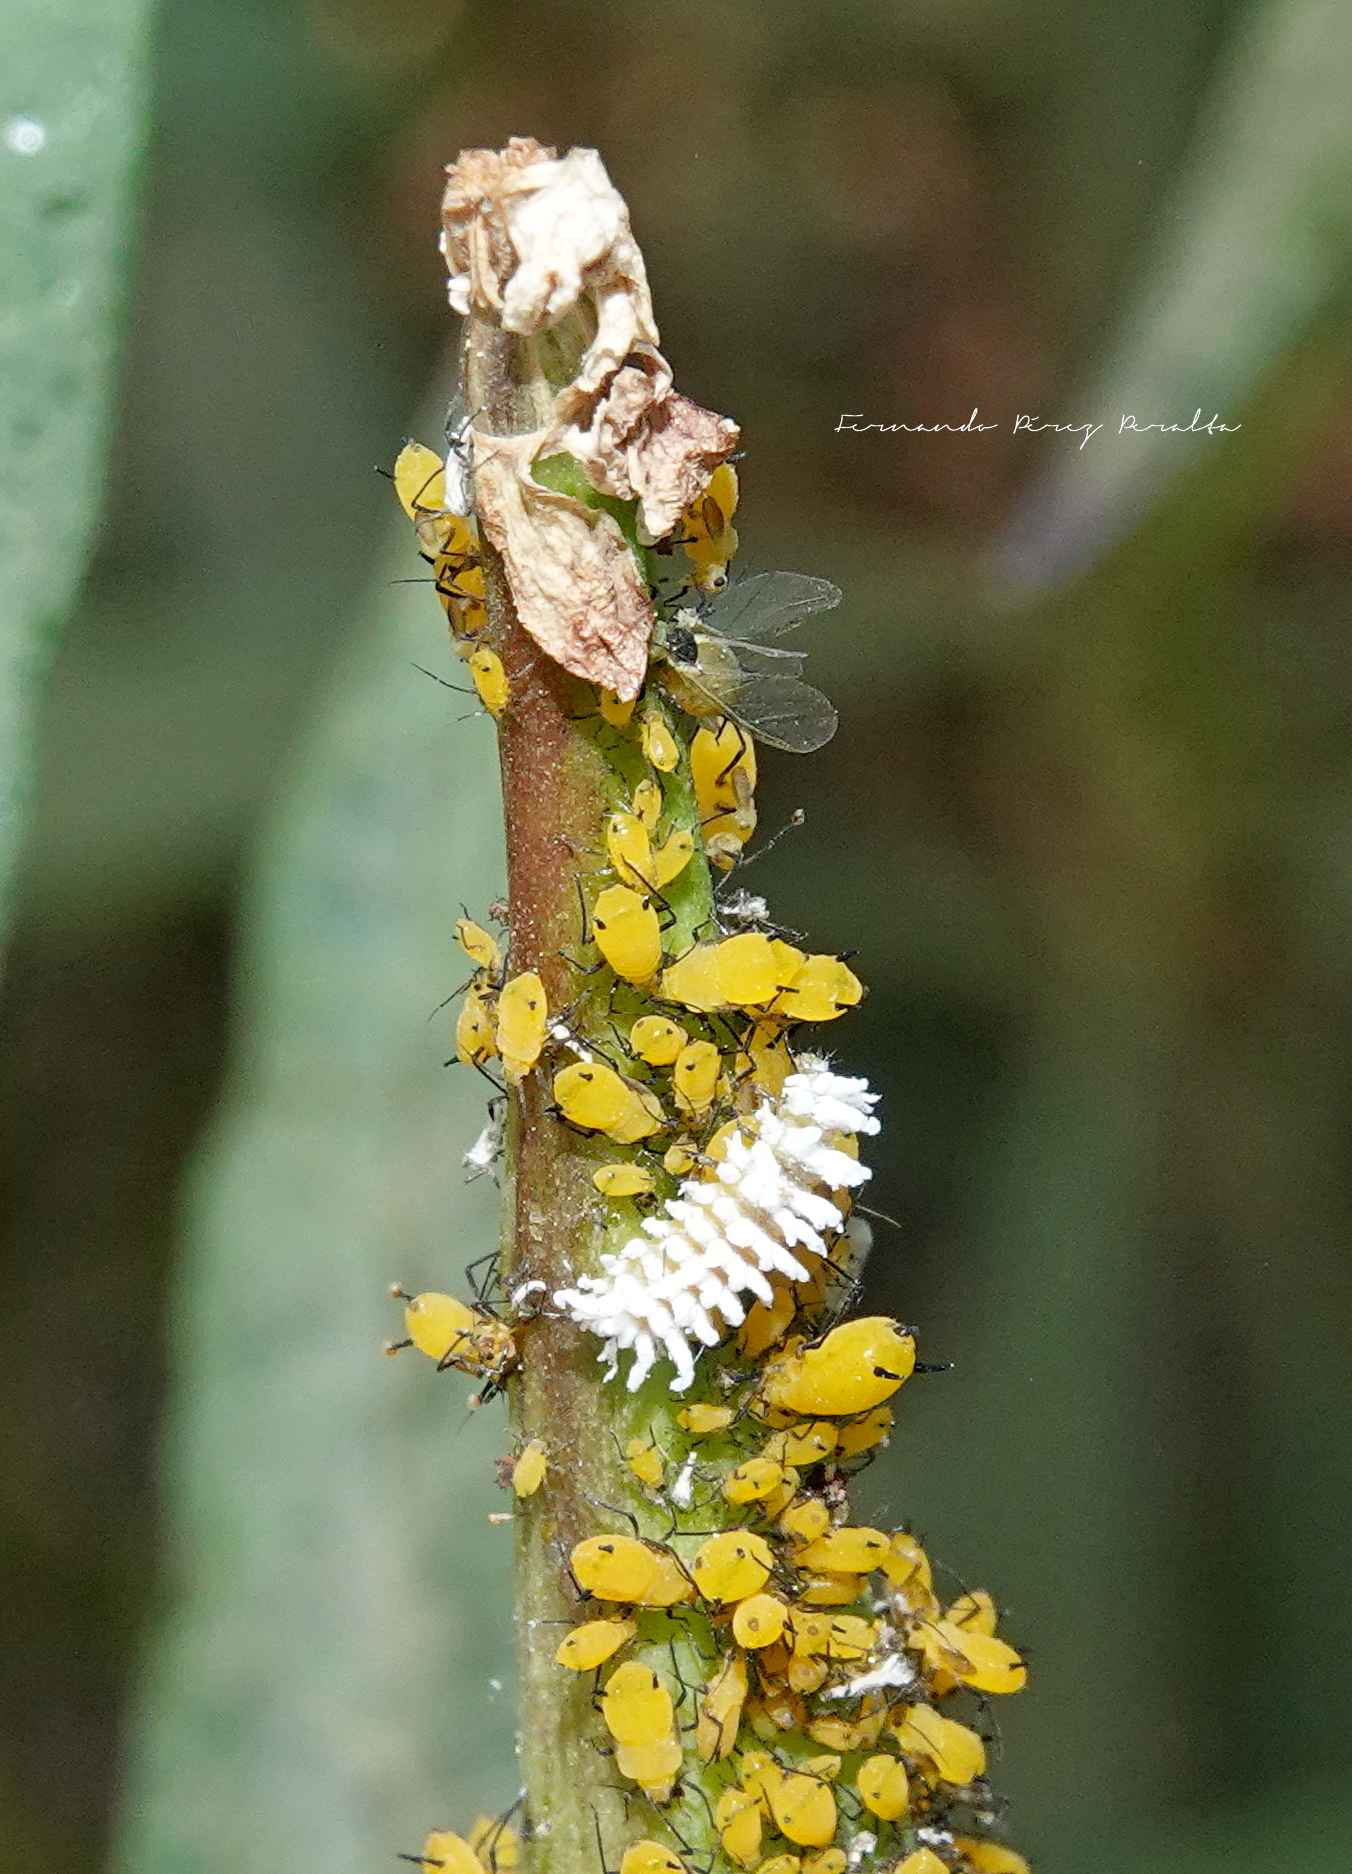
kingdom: Animalia
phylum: Arthropoda
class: Insecta
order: Coleoptera
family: Coccinellidae
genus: Cryptolaemus
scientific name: Cryptolaemus montrouzieri
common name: Mealybug destroyer
